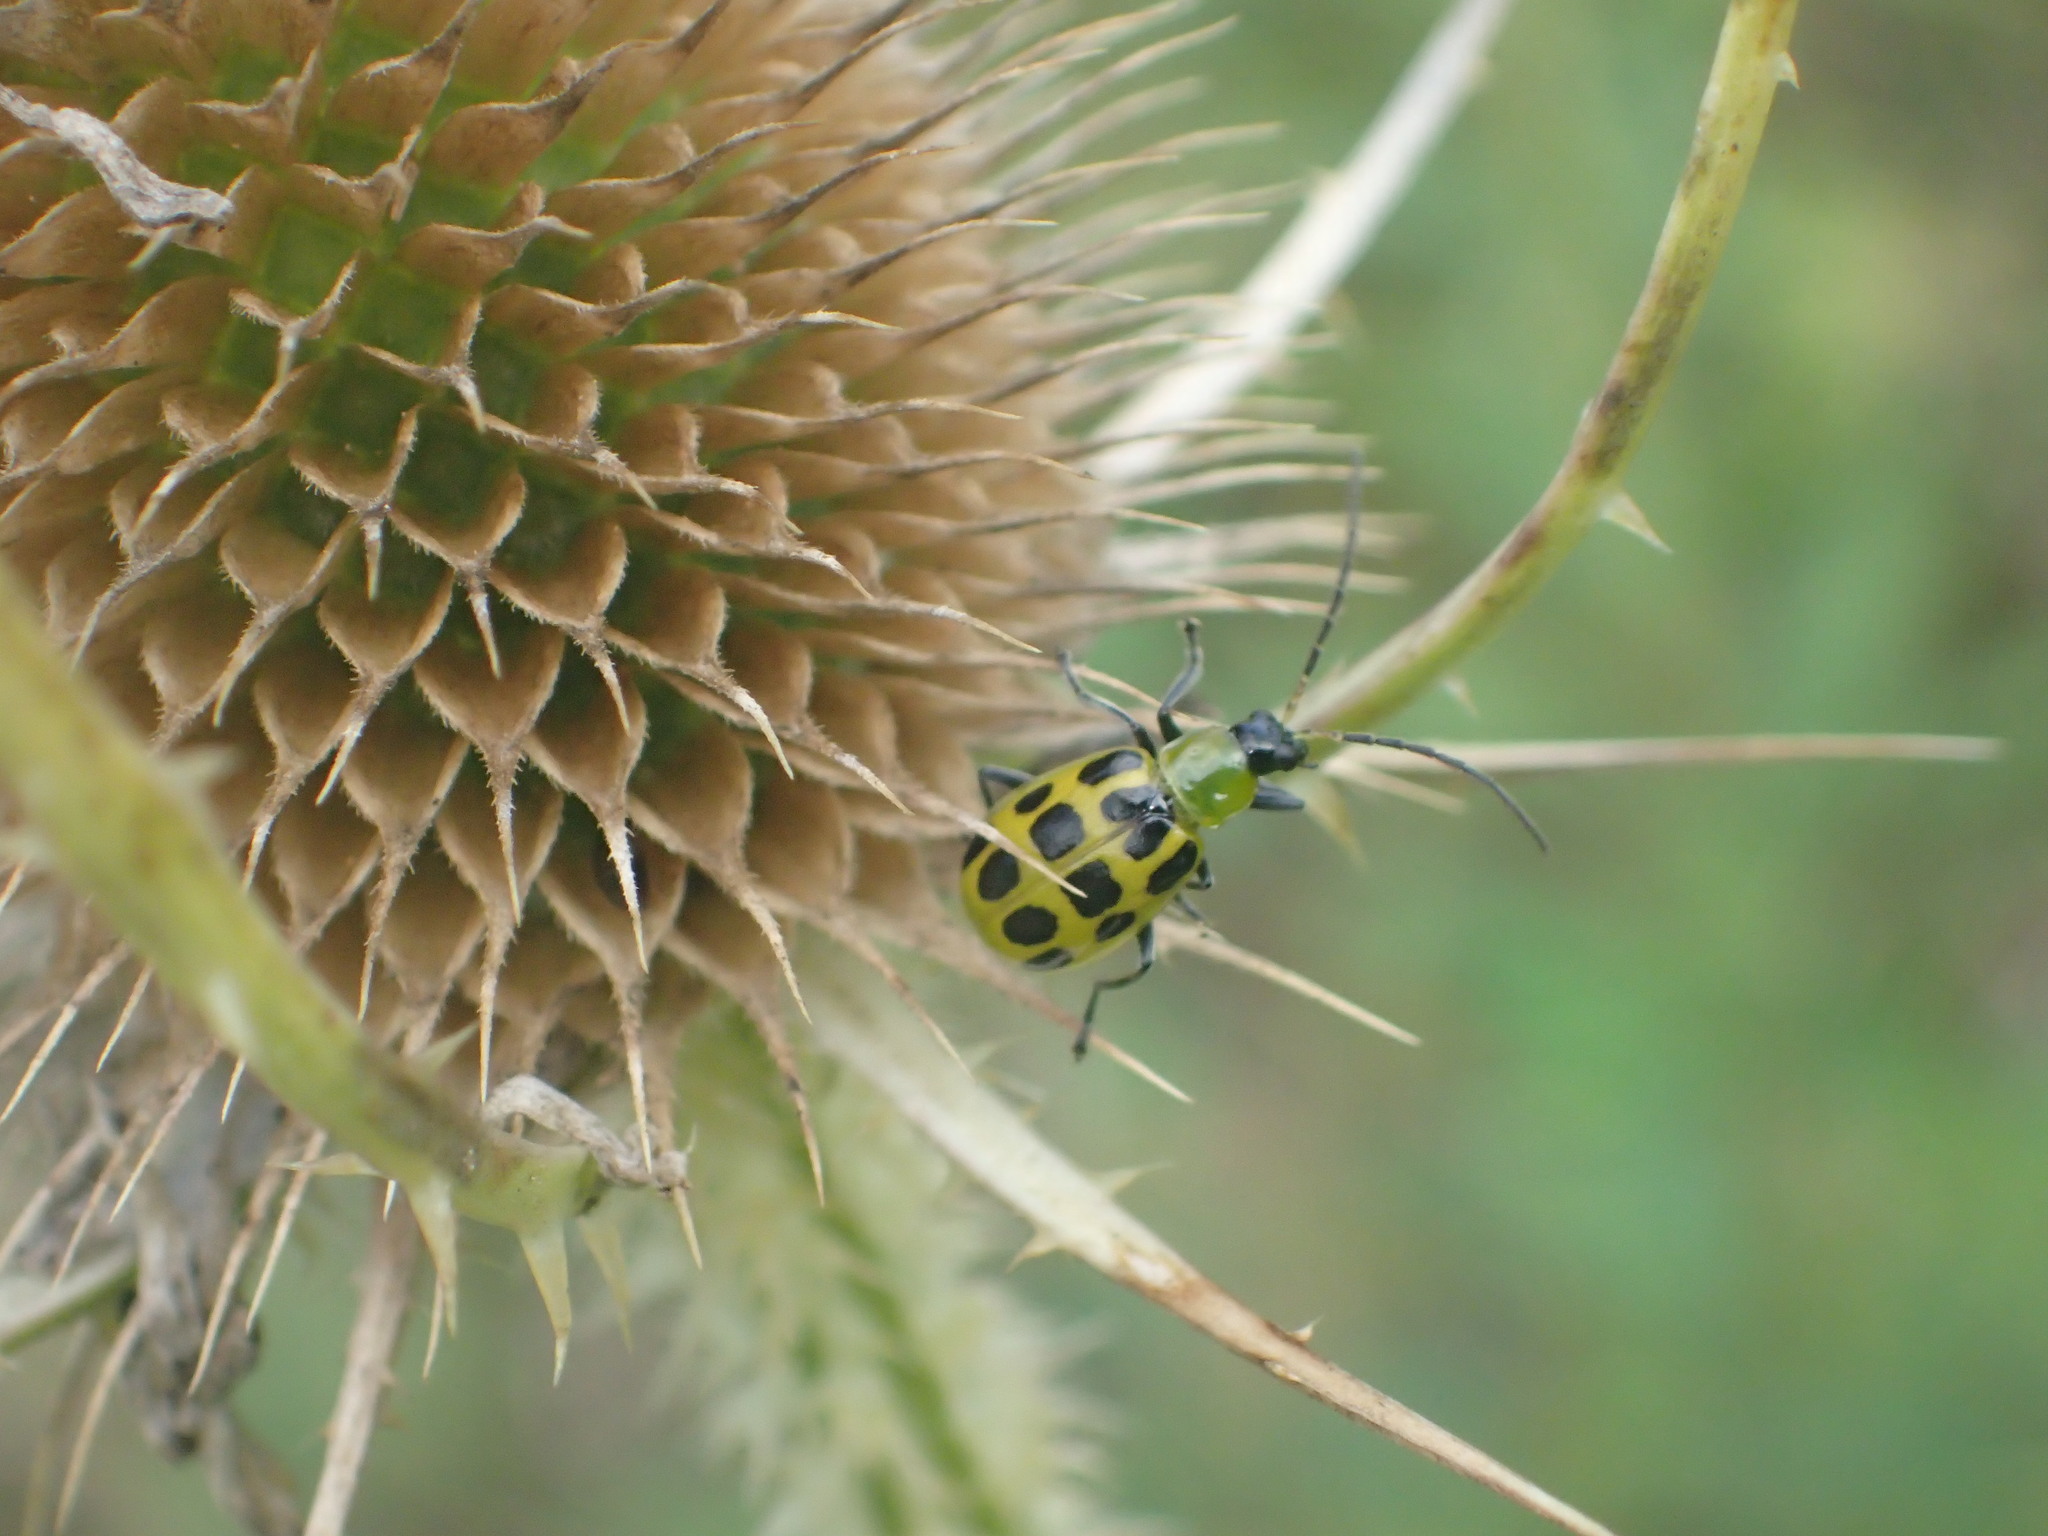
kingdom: Animalia
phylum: Arthropoda
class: Insecta
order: Coleoptera
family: Chrysomelidae
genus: Diabrotica
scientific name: Diabrotica undecimpunctata
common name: Spotted cucumber beetle
